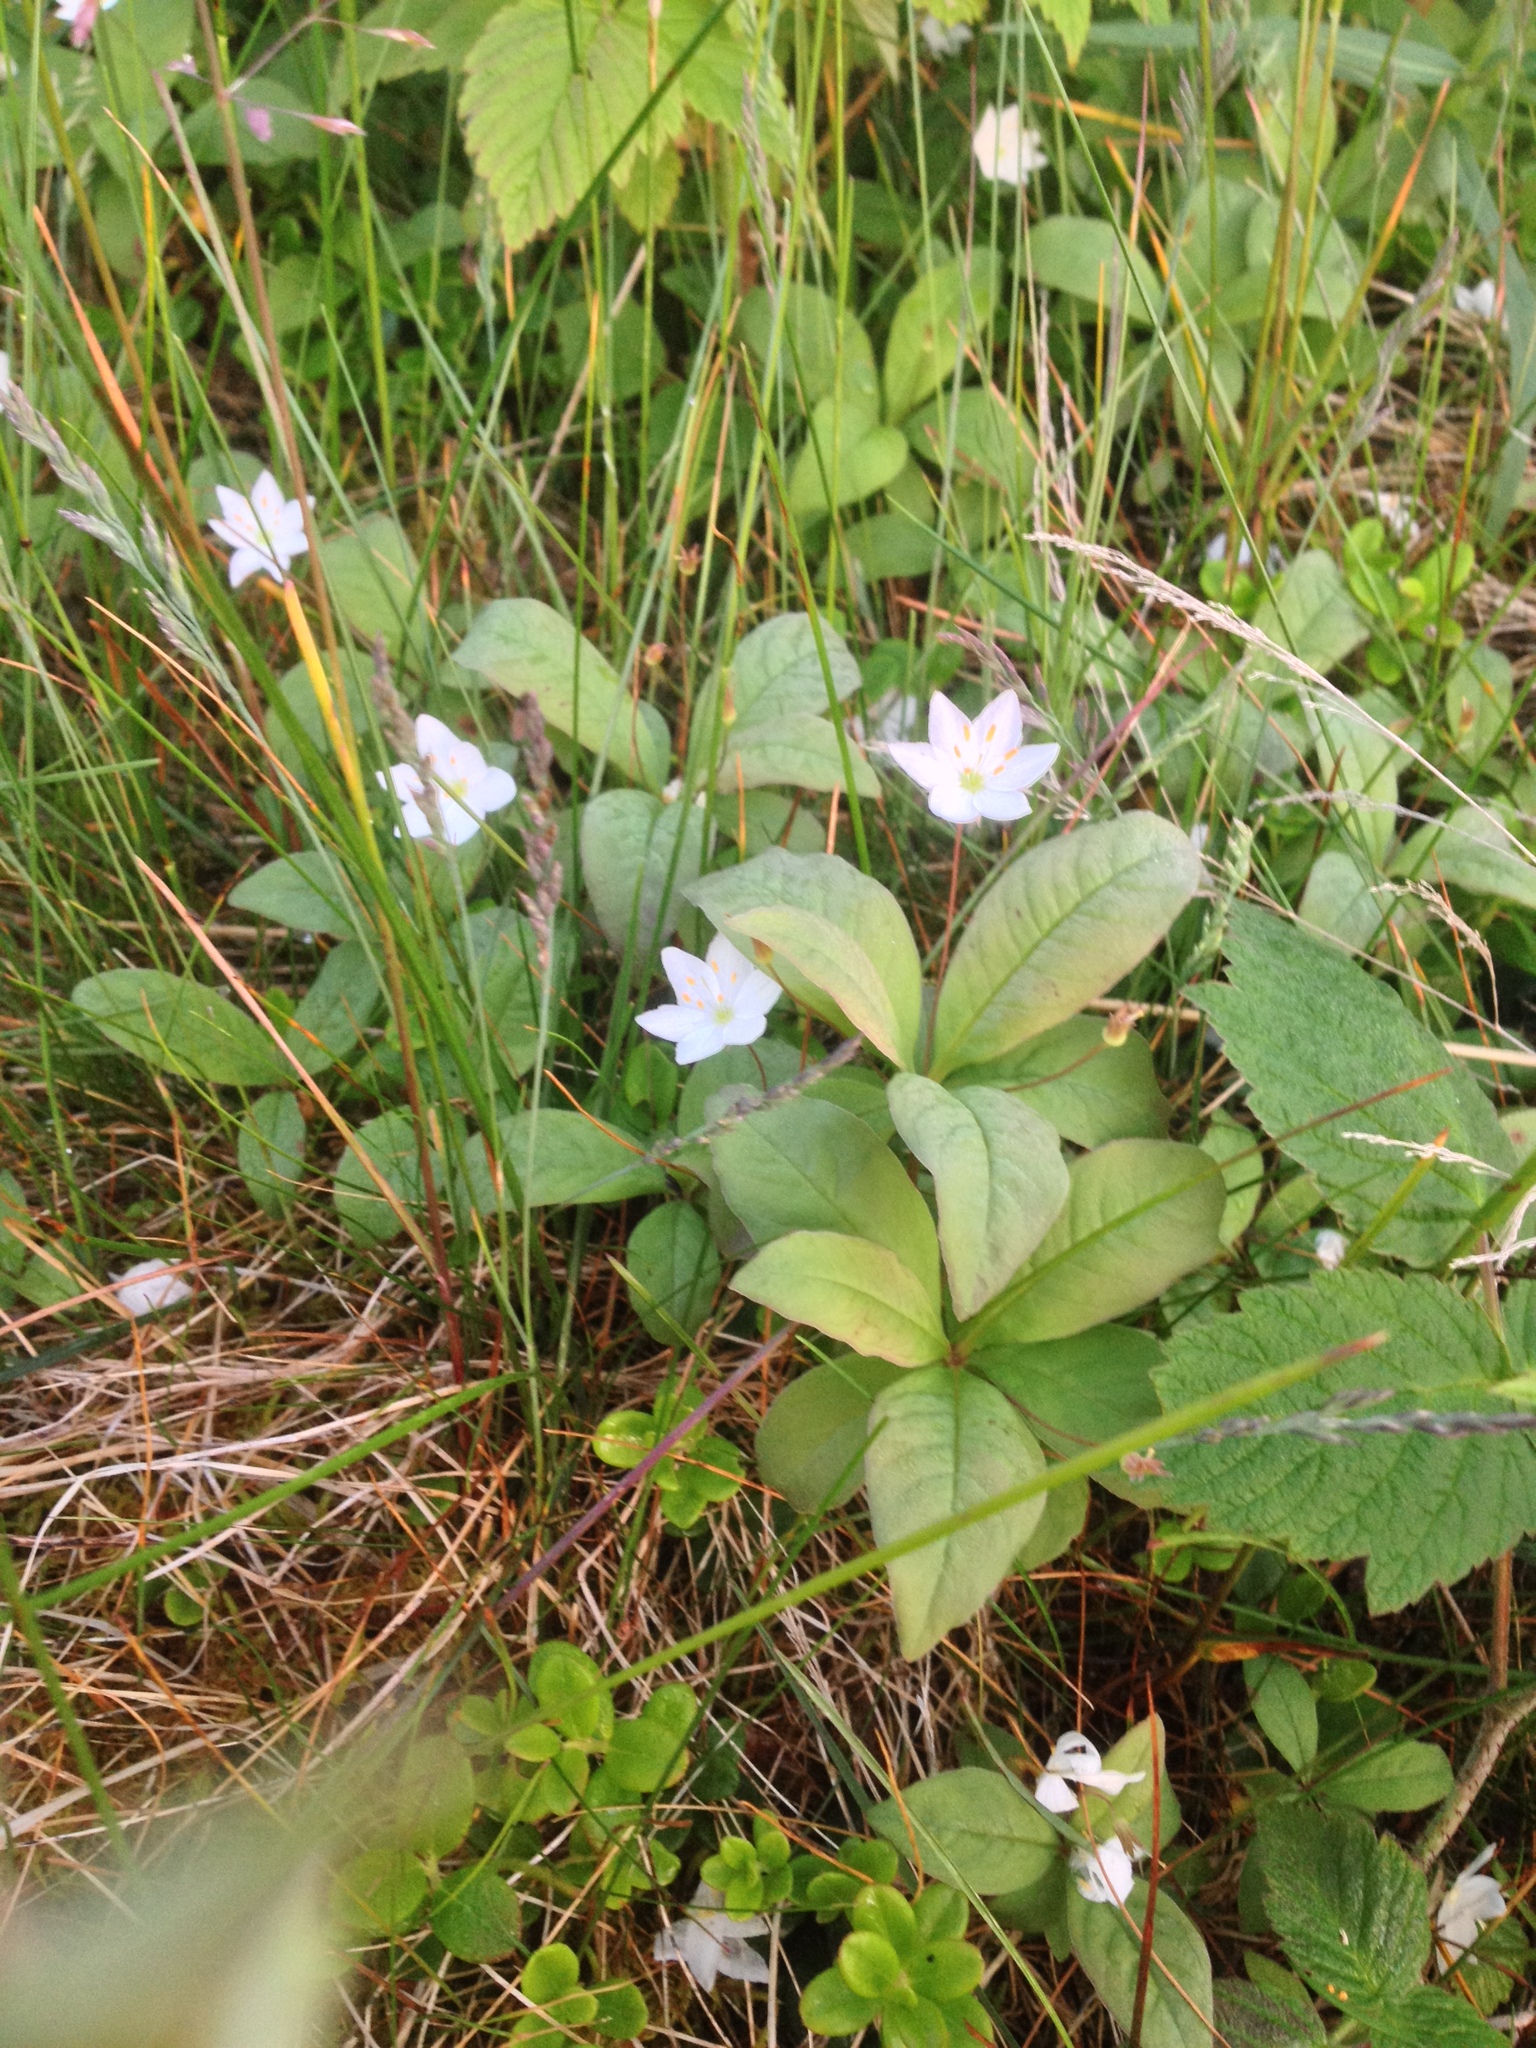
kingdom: Plantae
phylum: Tracheophyta
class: Magnoliopsida
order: Ericales
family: Primulaceae
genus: Lysimachia
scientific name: Lysimachia europaea
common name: Arctic starflower
